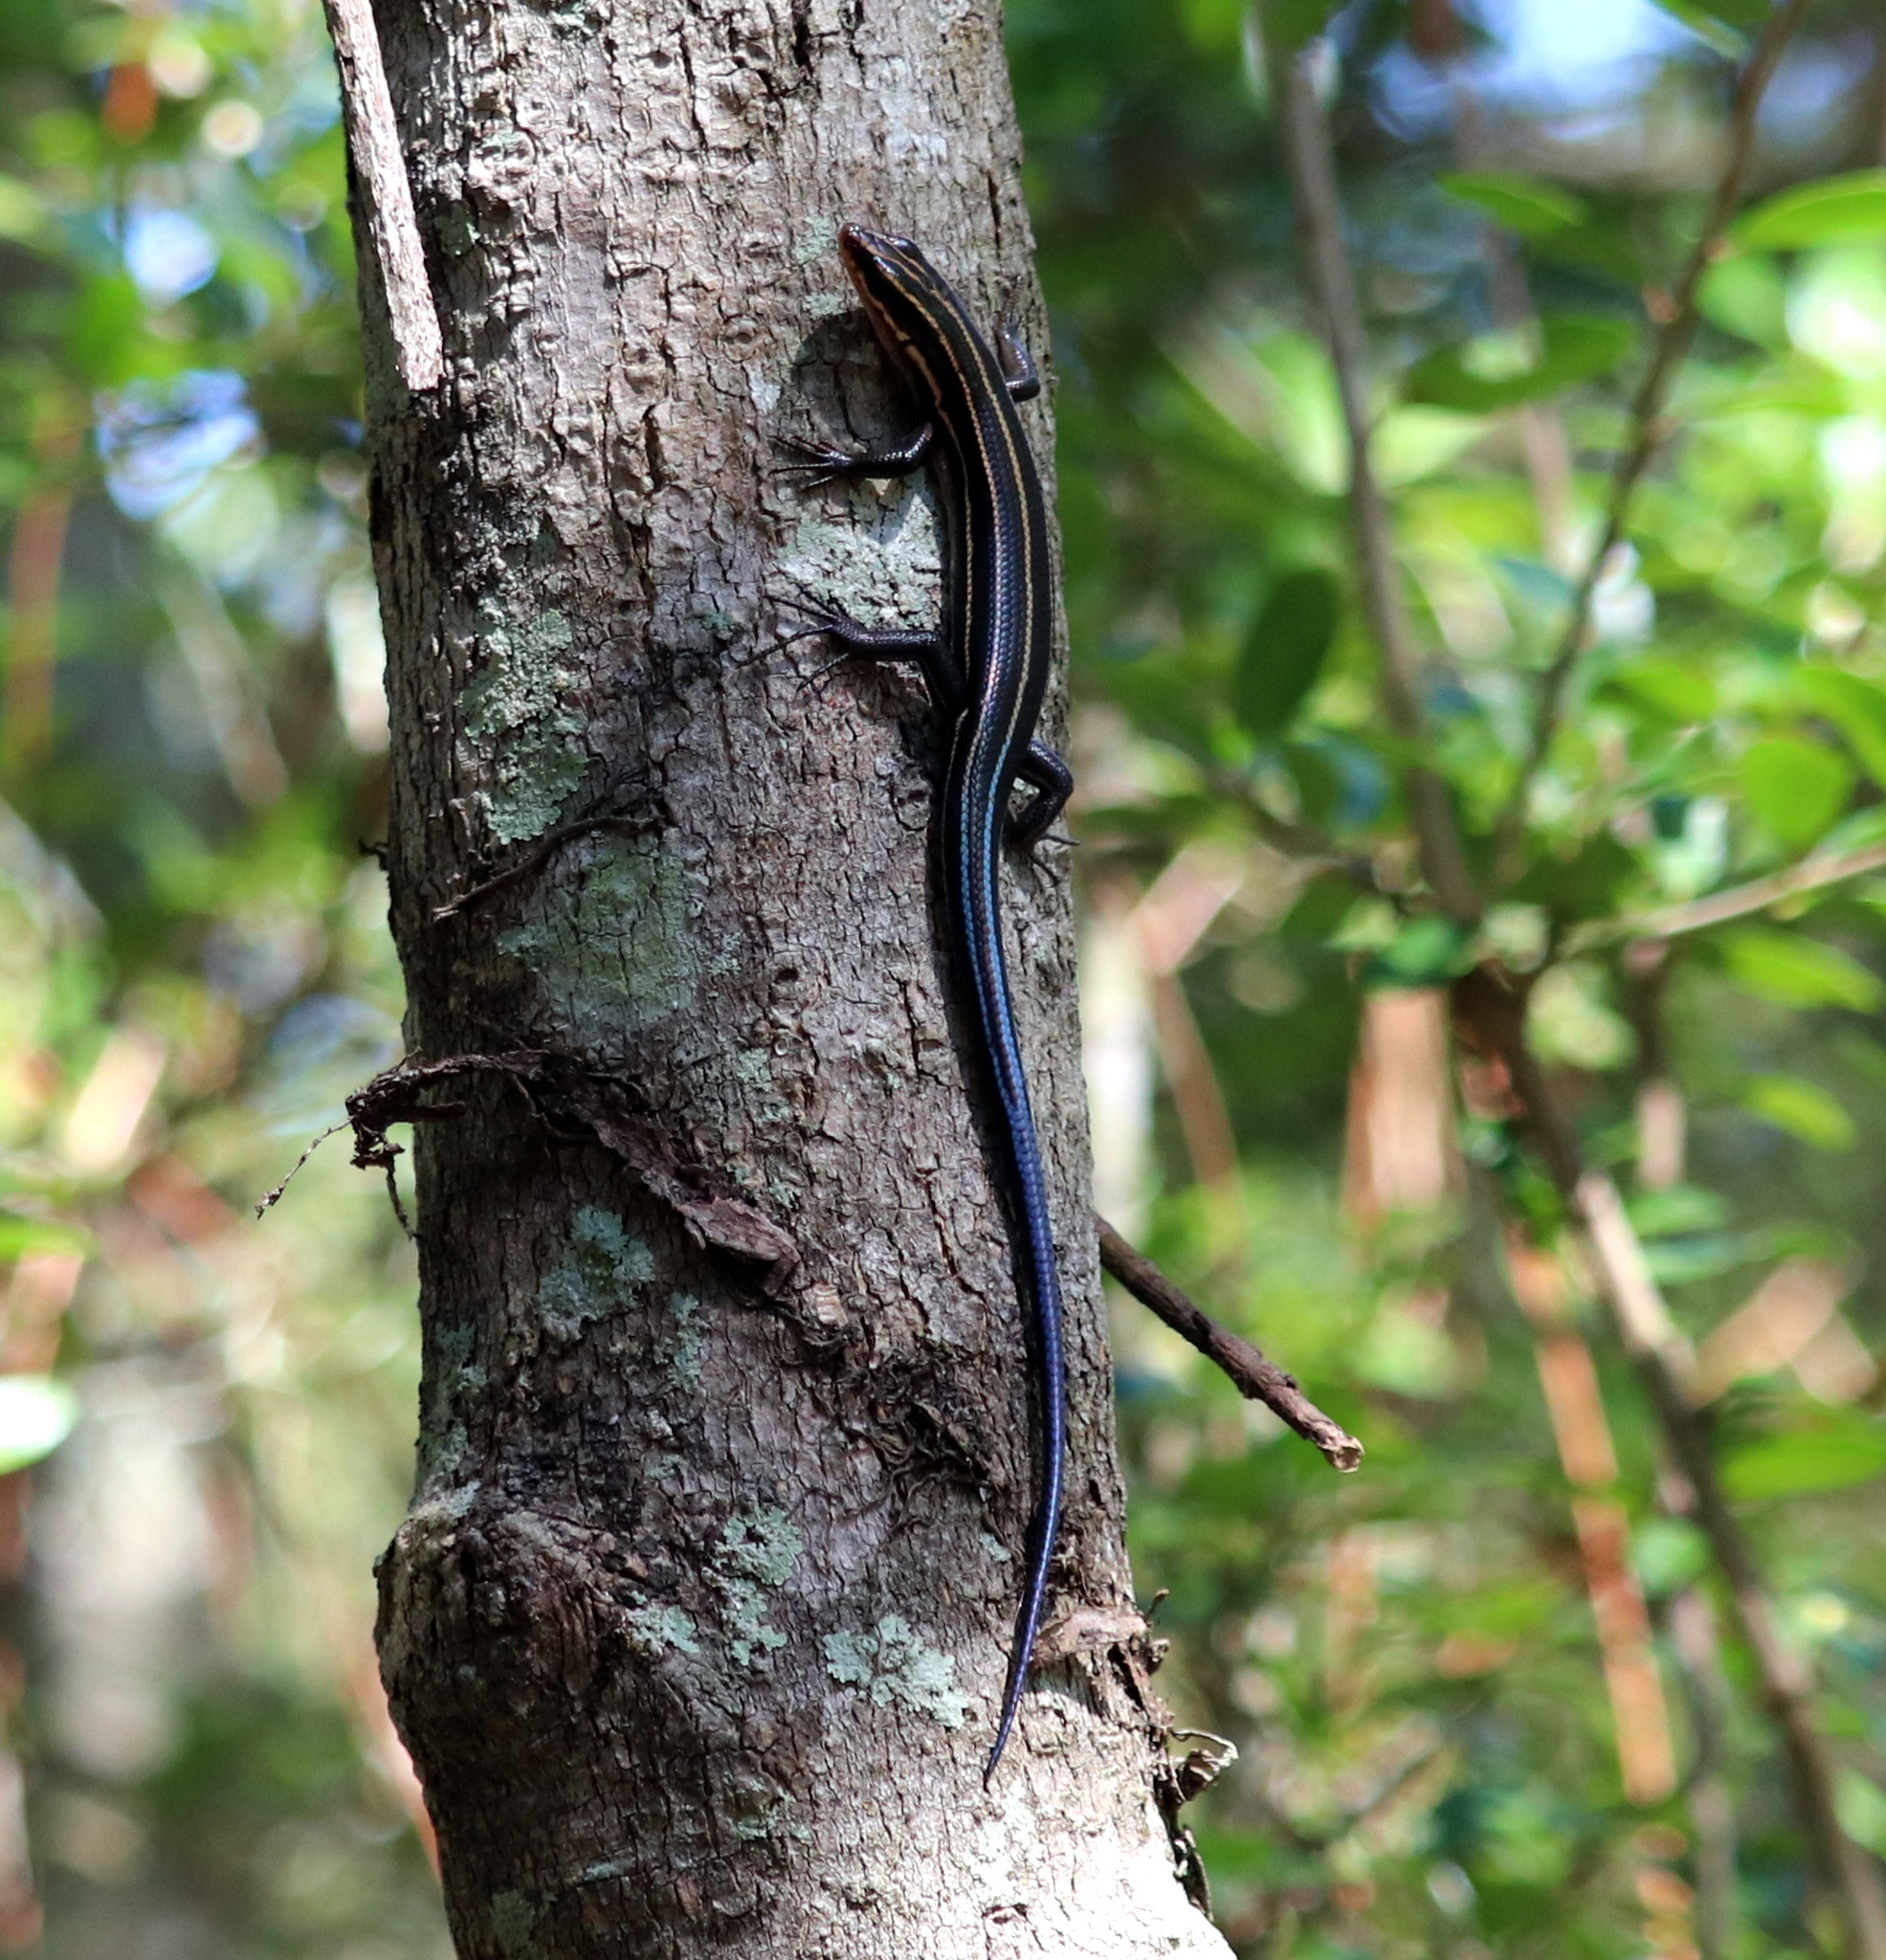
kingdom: Animalia
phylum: Chordata
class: Squamata
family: Scincidae
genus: Plestiodon
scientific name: Plestiodon inexpectatus
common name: Southeastern five-lined skink
